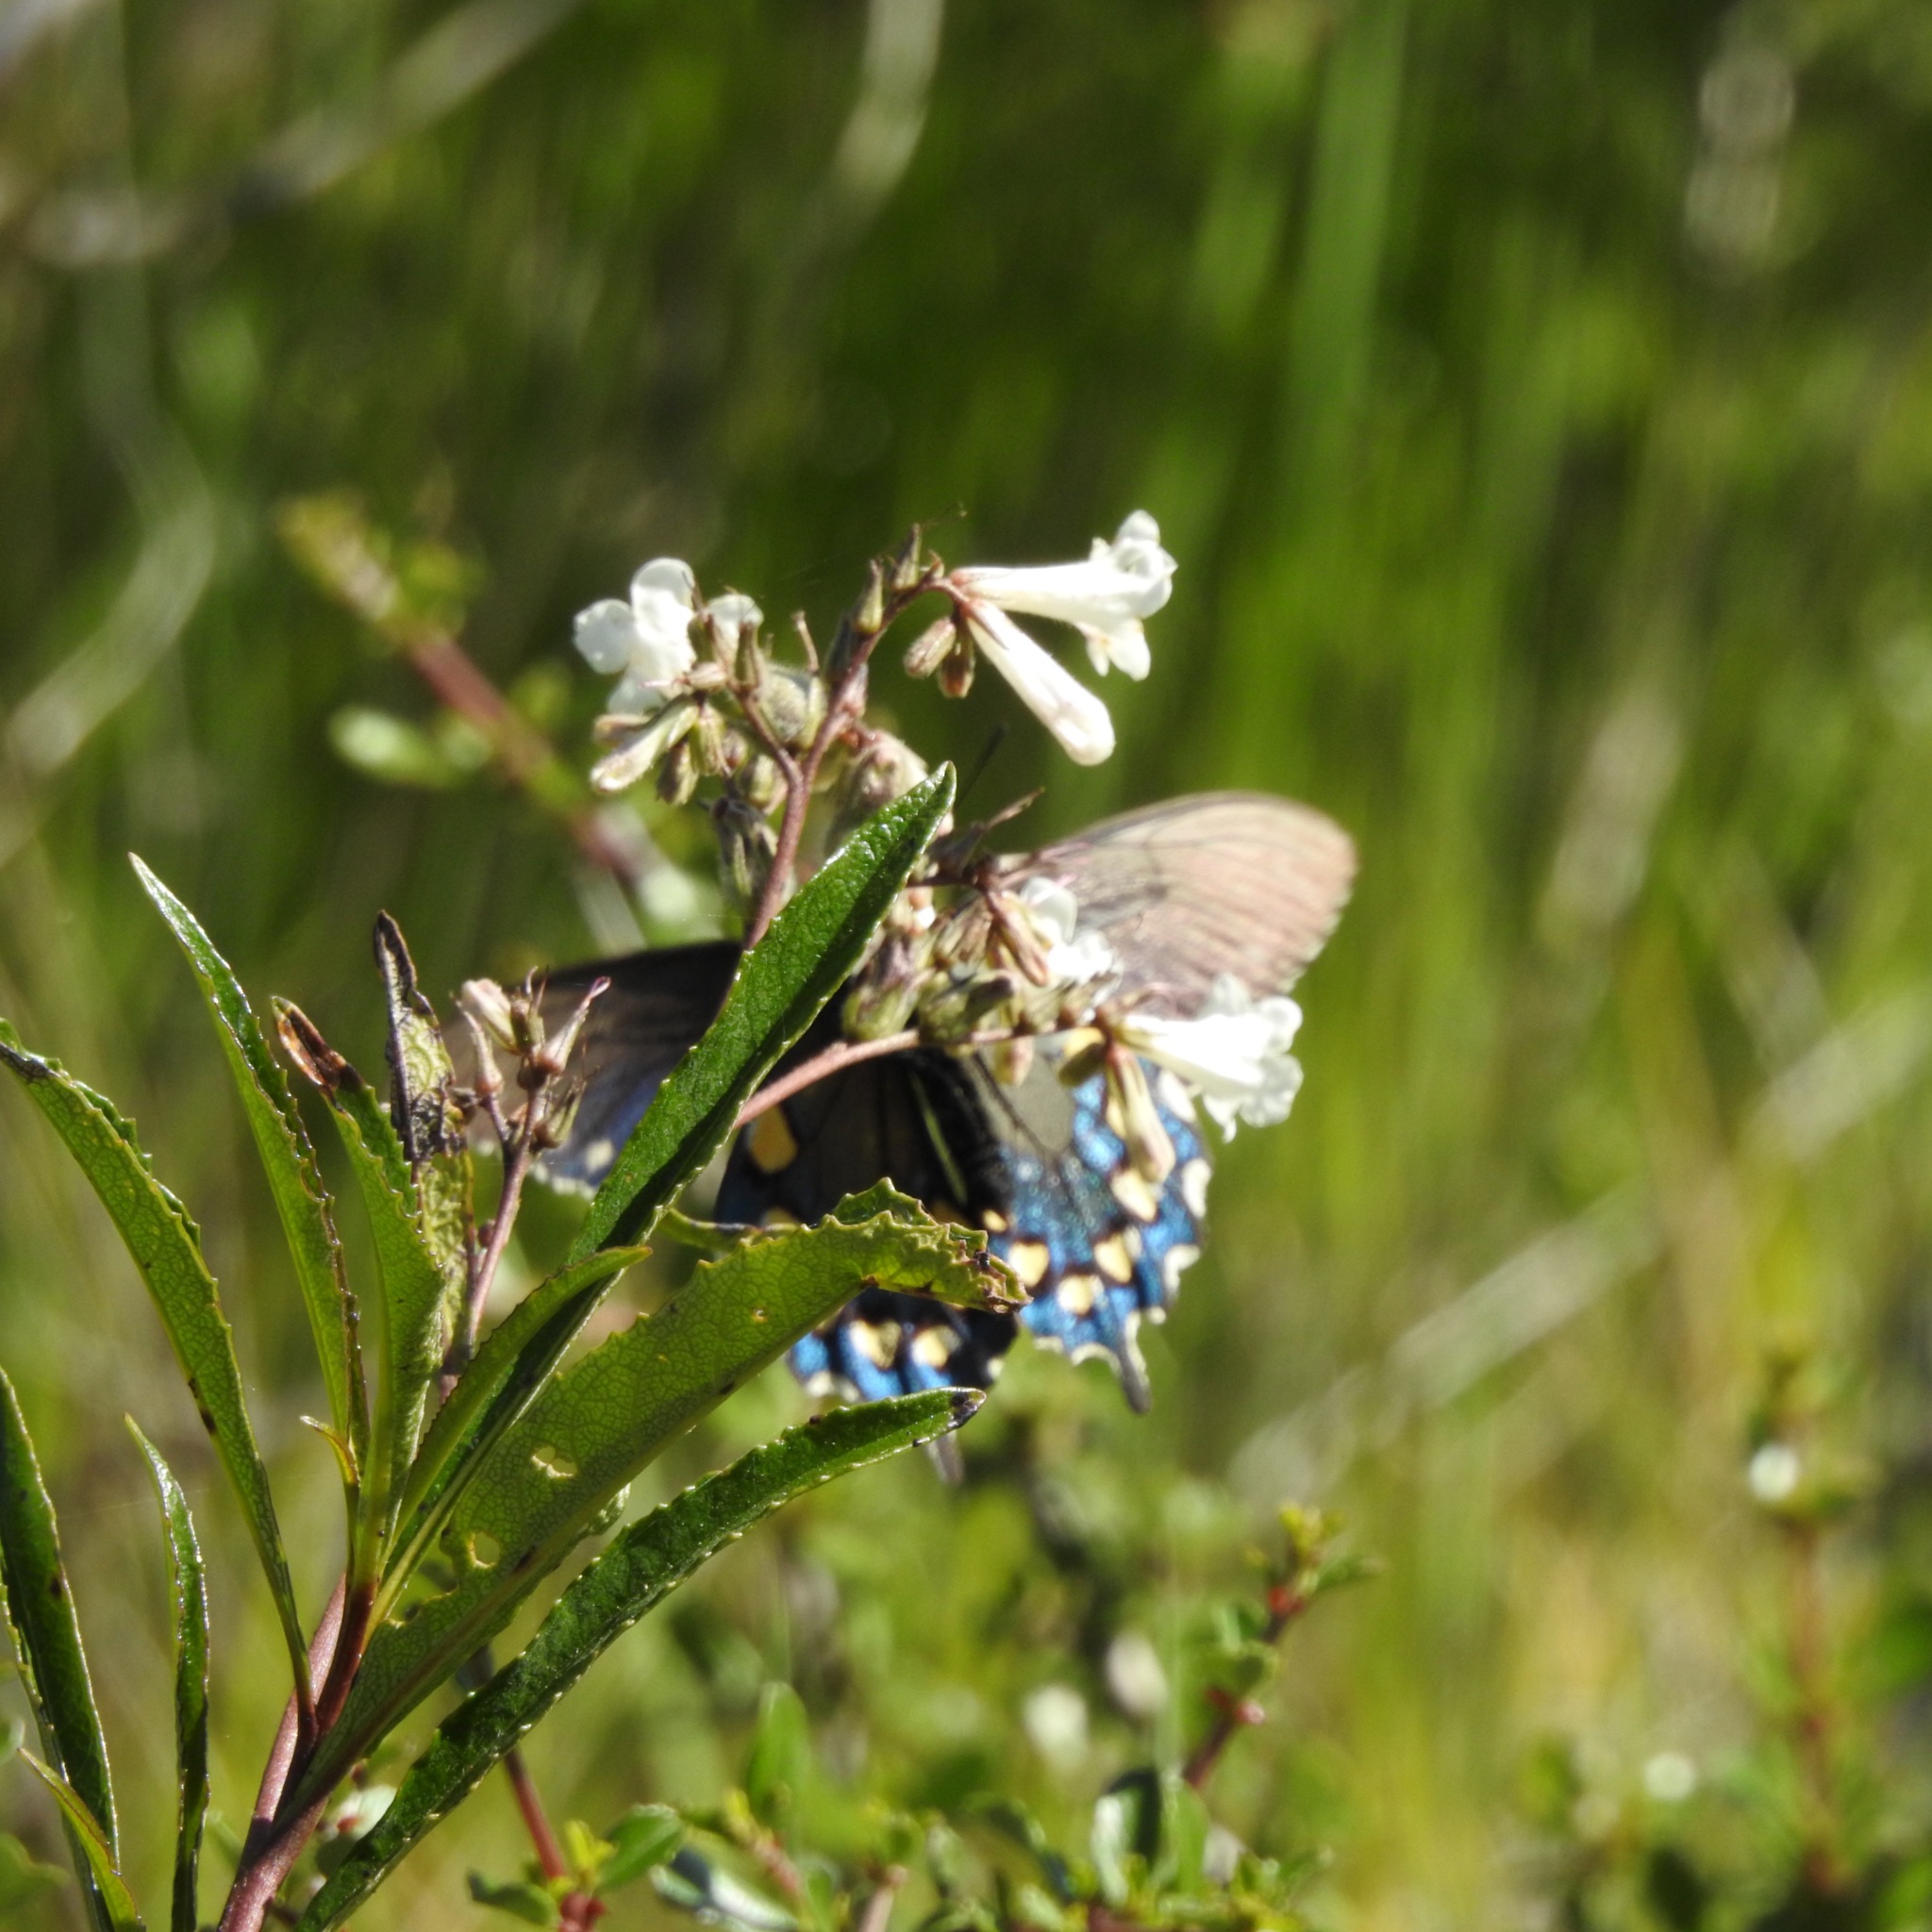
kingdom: Animalia
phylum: Arthropoda
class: Insecta
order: Lepidoptera
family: Papilionidae
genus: Battus
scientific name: Battus philenor
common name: Pipevine swallowtail
